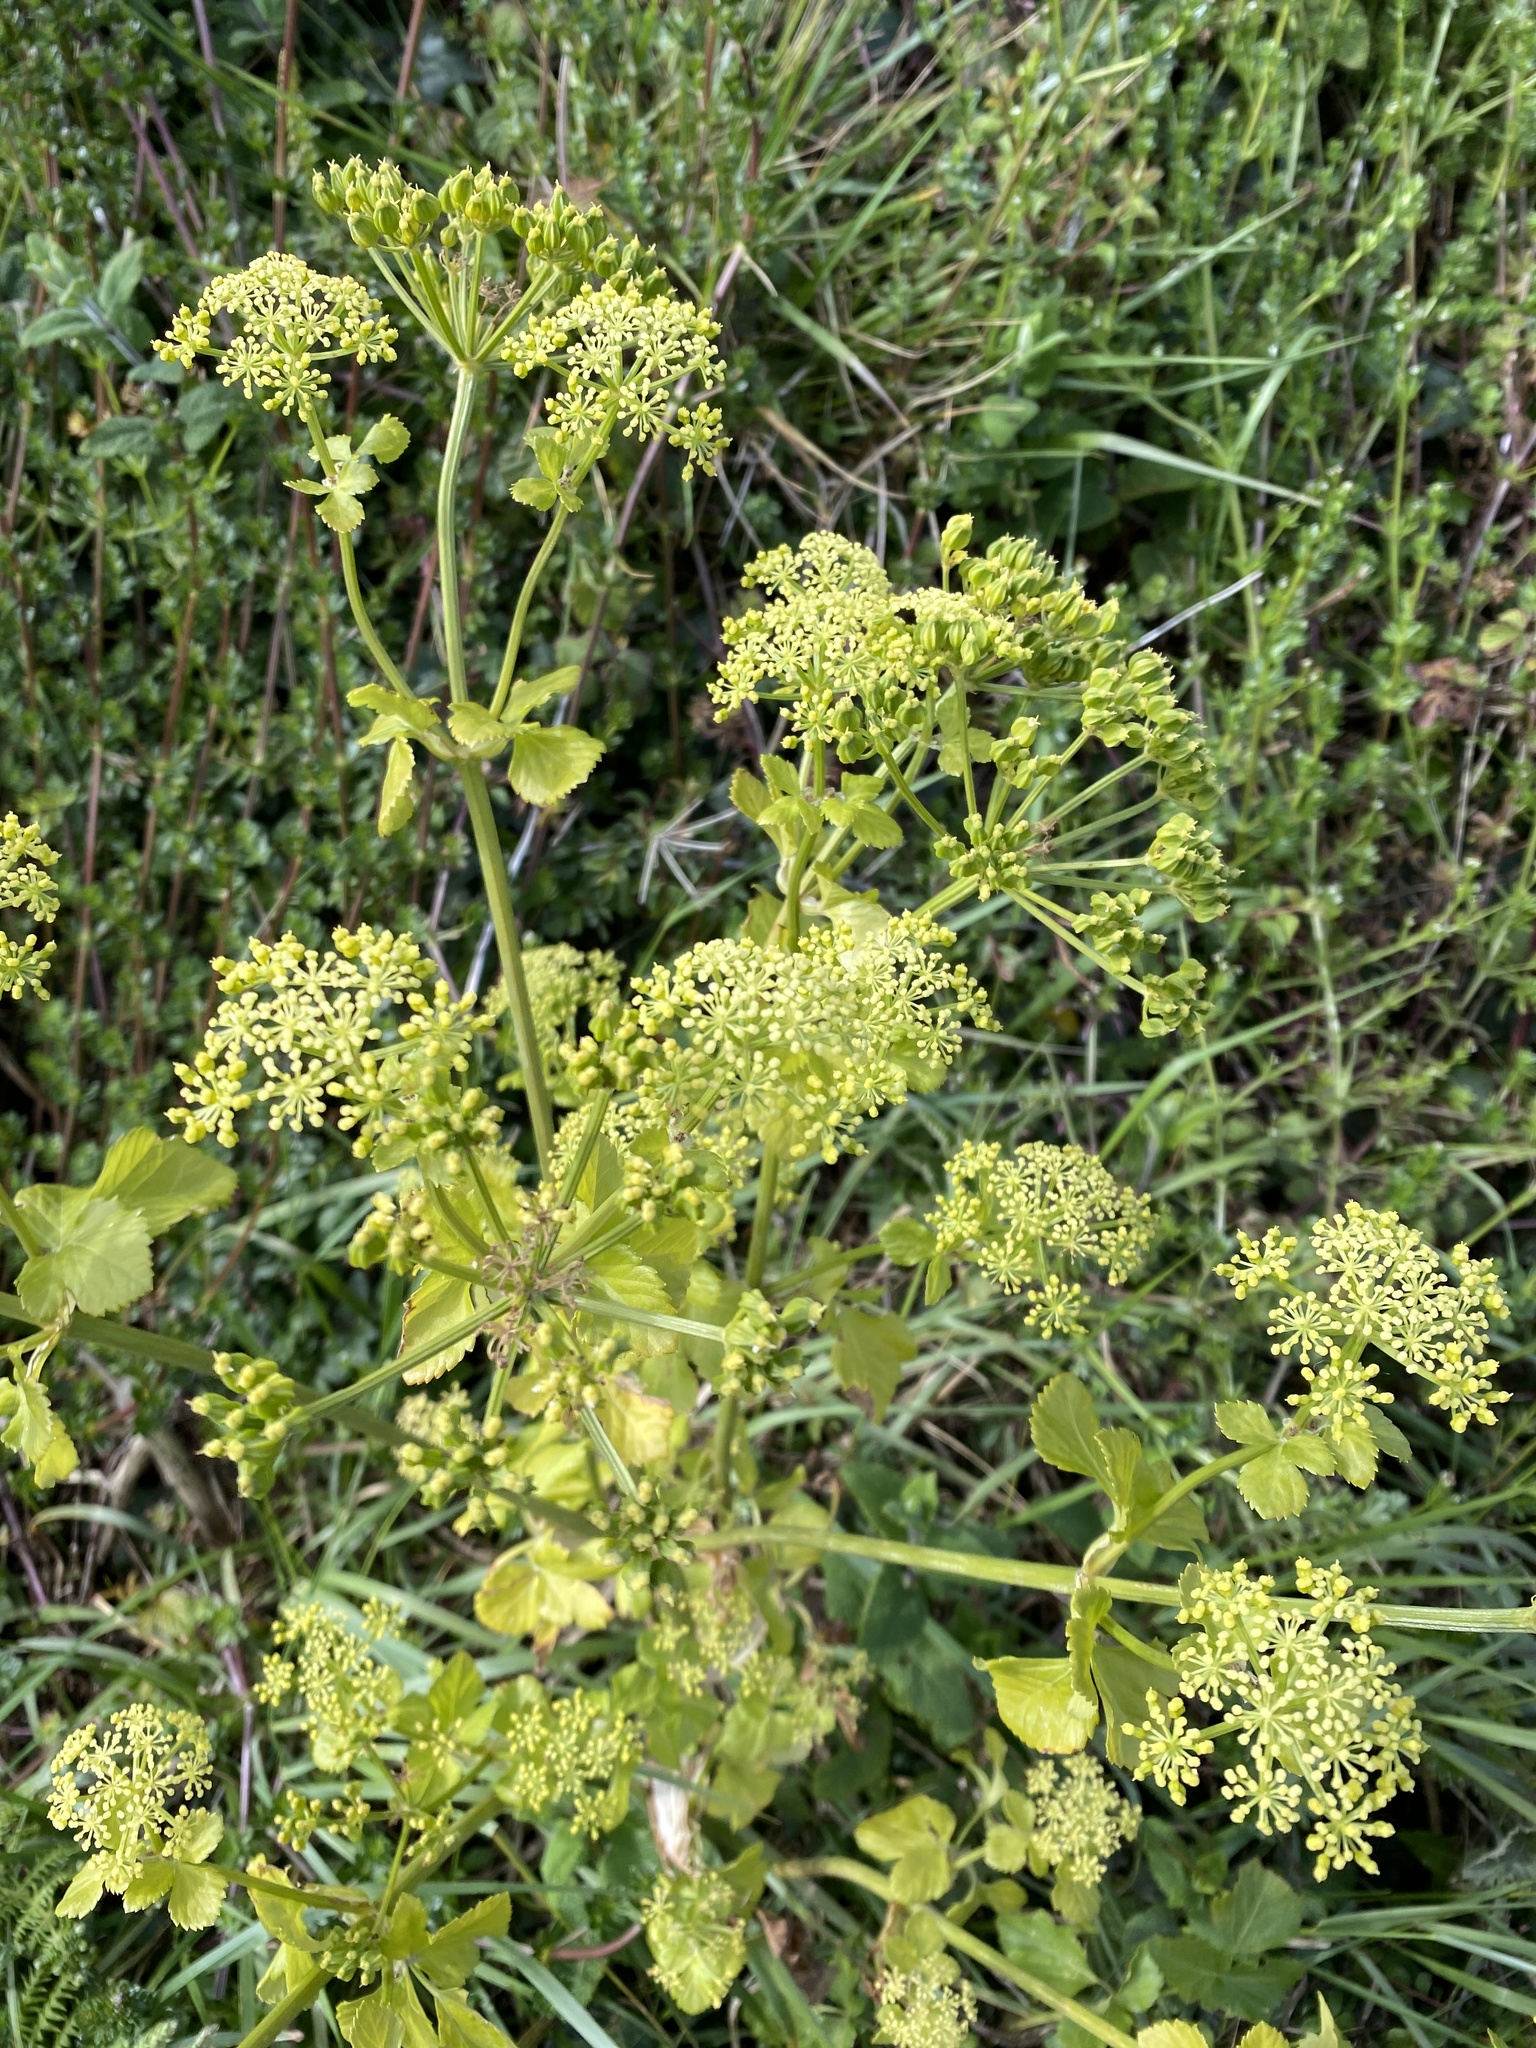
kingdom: Plantae
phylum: Tracheophyta
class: Magnoliopsida
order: Apiales
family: Apiaceae
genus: Smyrnium
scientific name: Smyrnium olusatrum
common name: Alexanders
